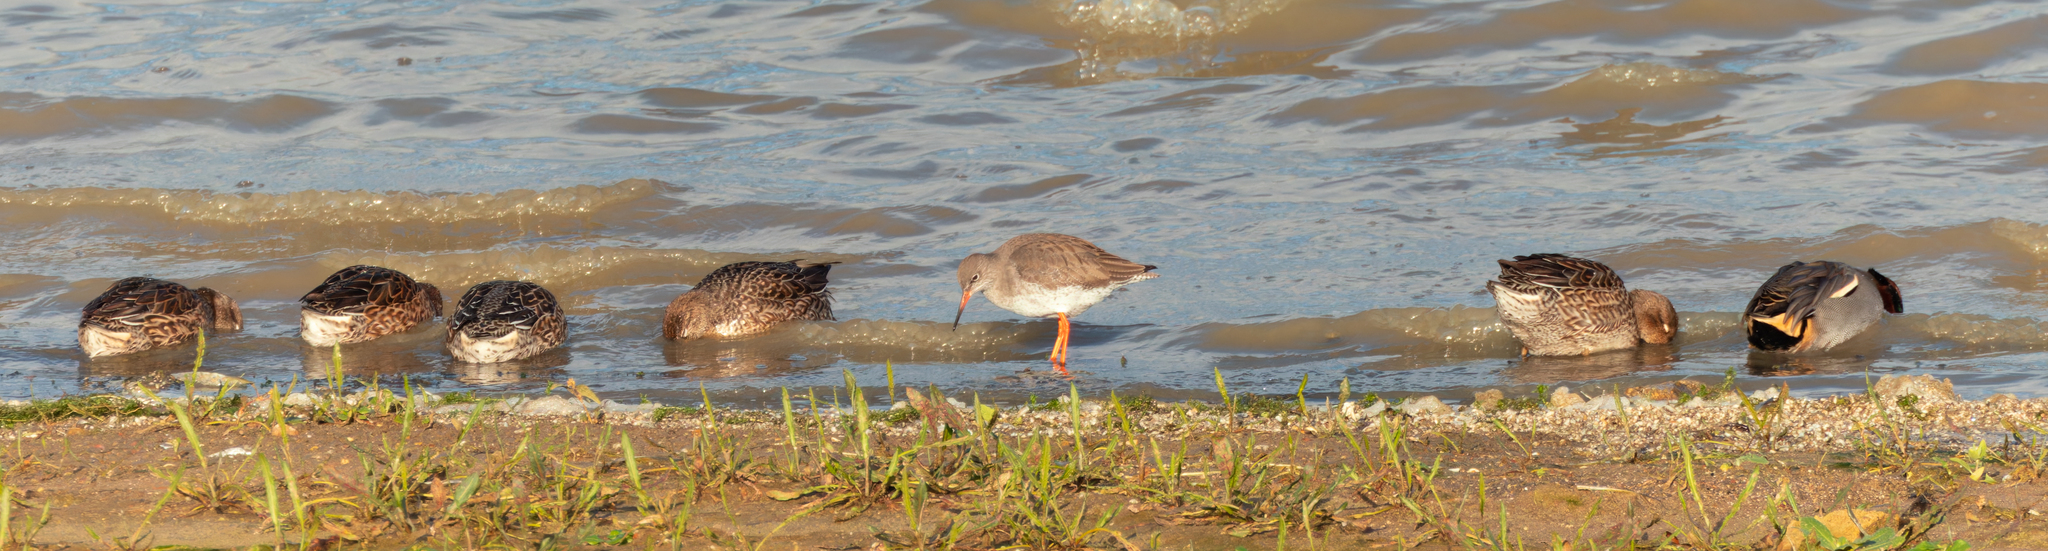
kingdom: Animalia
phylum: Chordata
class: Aves
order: Charadriiformes
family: Scolopacidae
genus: Tringa
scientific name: Tringa totanus
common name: Common redshank
